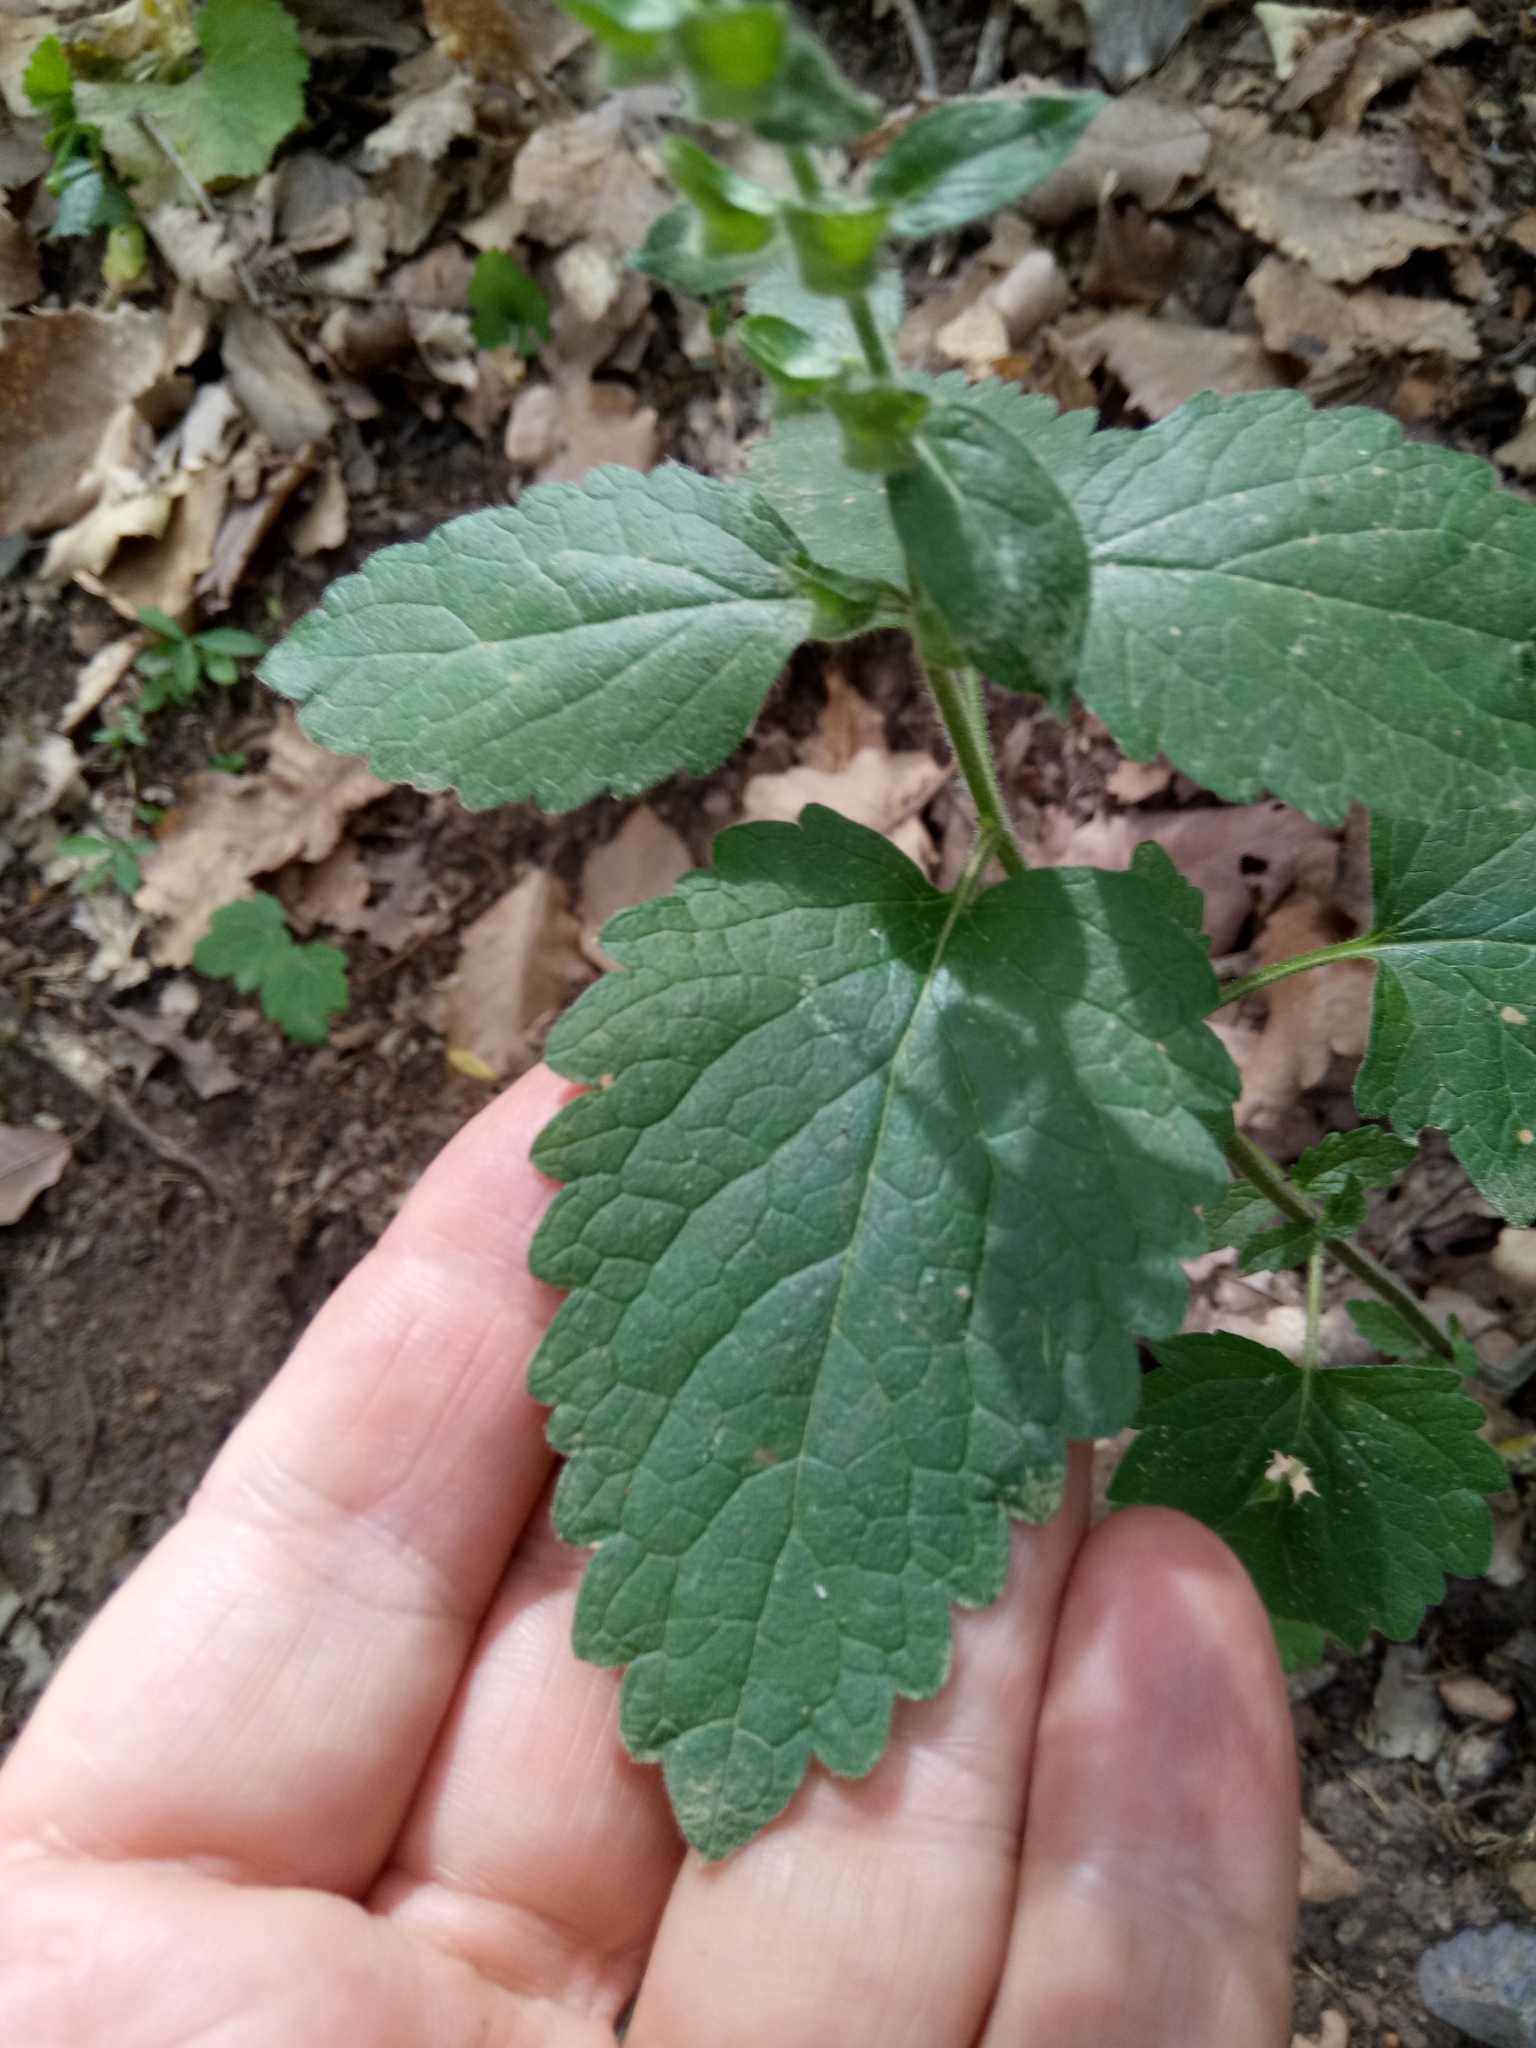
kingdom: Plantae
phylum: Tracheophyta
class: Magnoliopsida
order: Lamiales
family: Lamiaceae
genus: Scutellaria
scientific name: Scutellaria columnae
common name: Large skullcap
